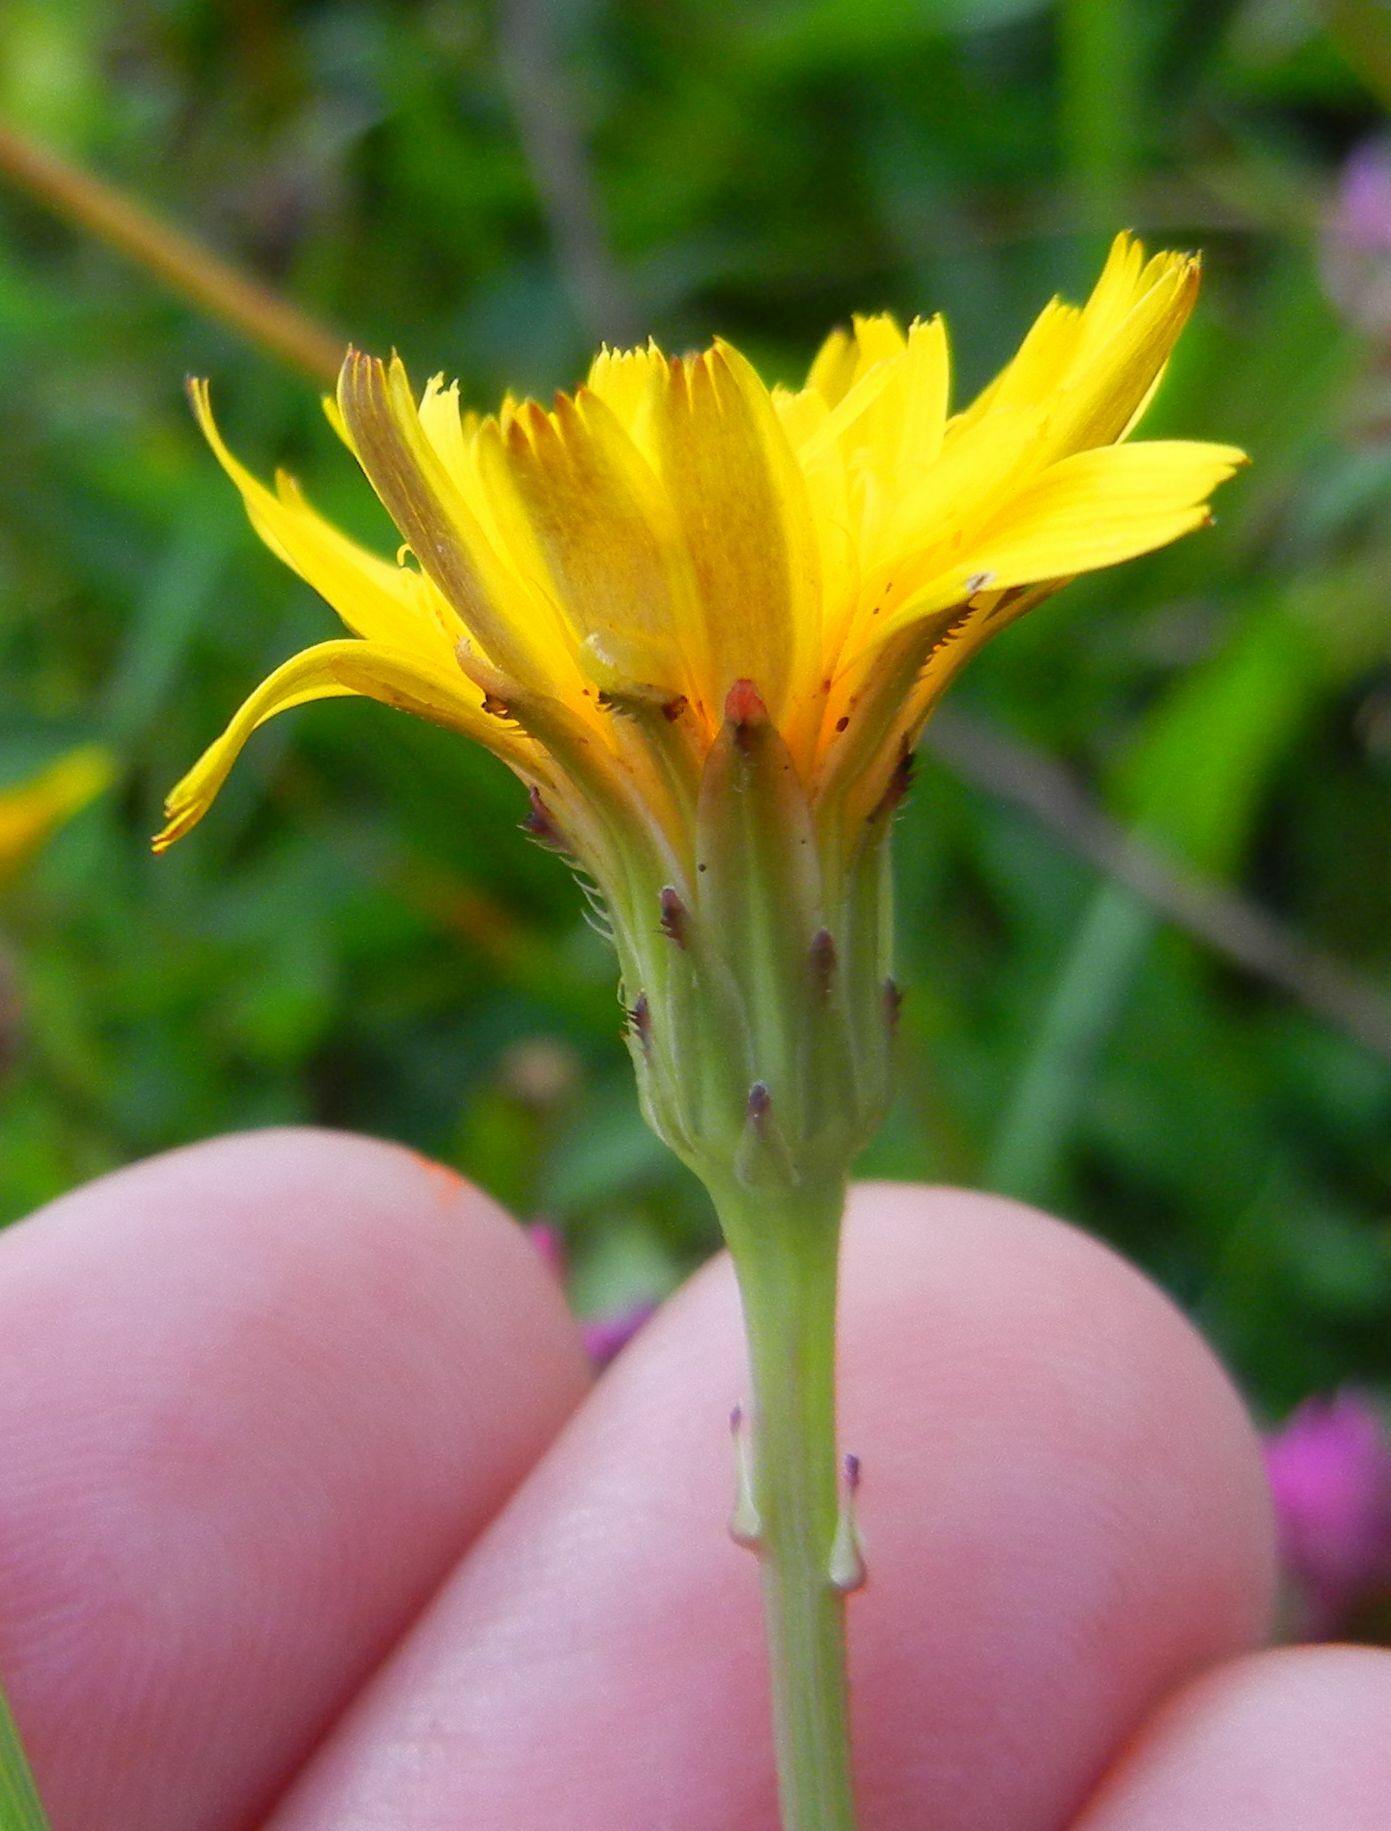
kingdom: Plantae
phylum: Tracheophyta
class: Magnoliopsida
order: Asterales
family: Asteraceae
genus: Hypochaeris
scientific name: Hypochaeris radicata
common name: Flatweed
